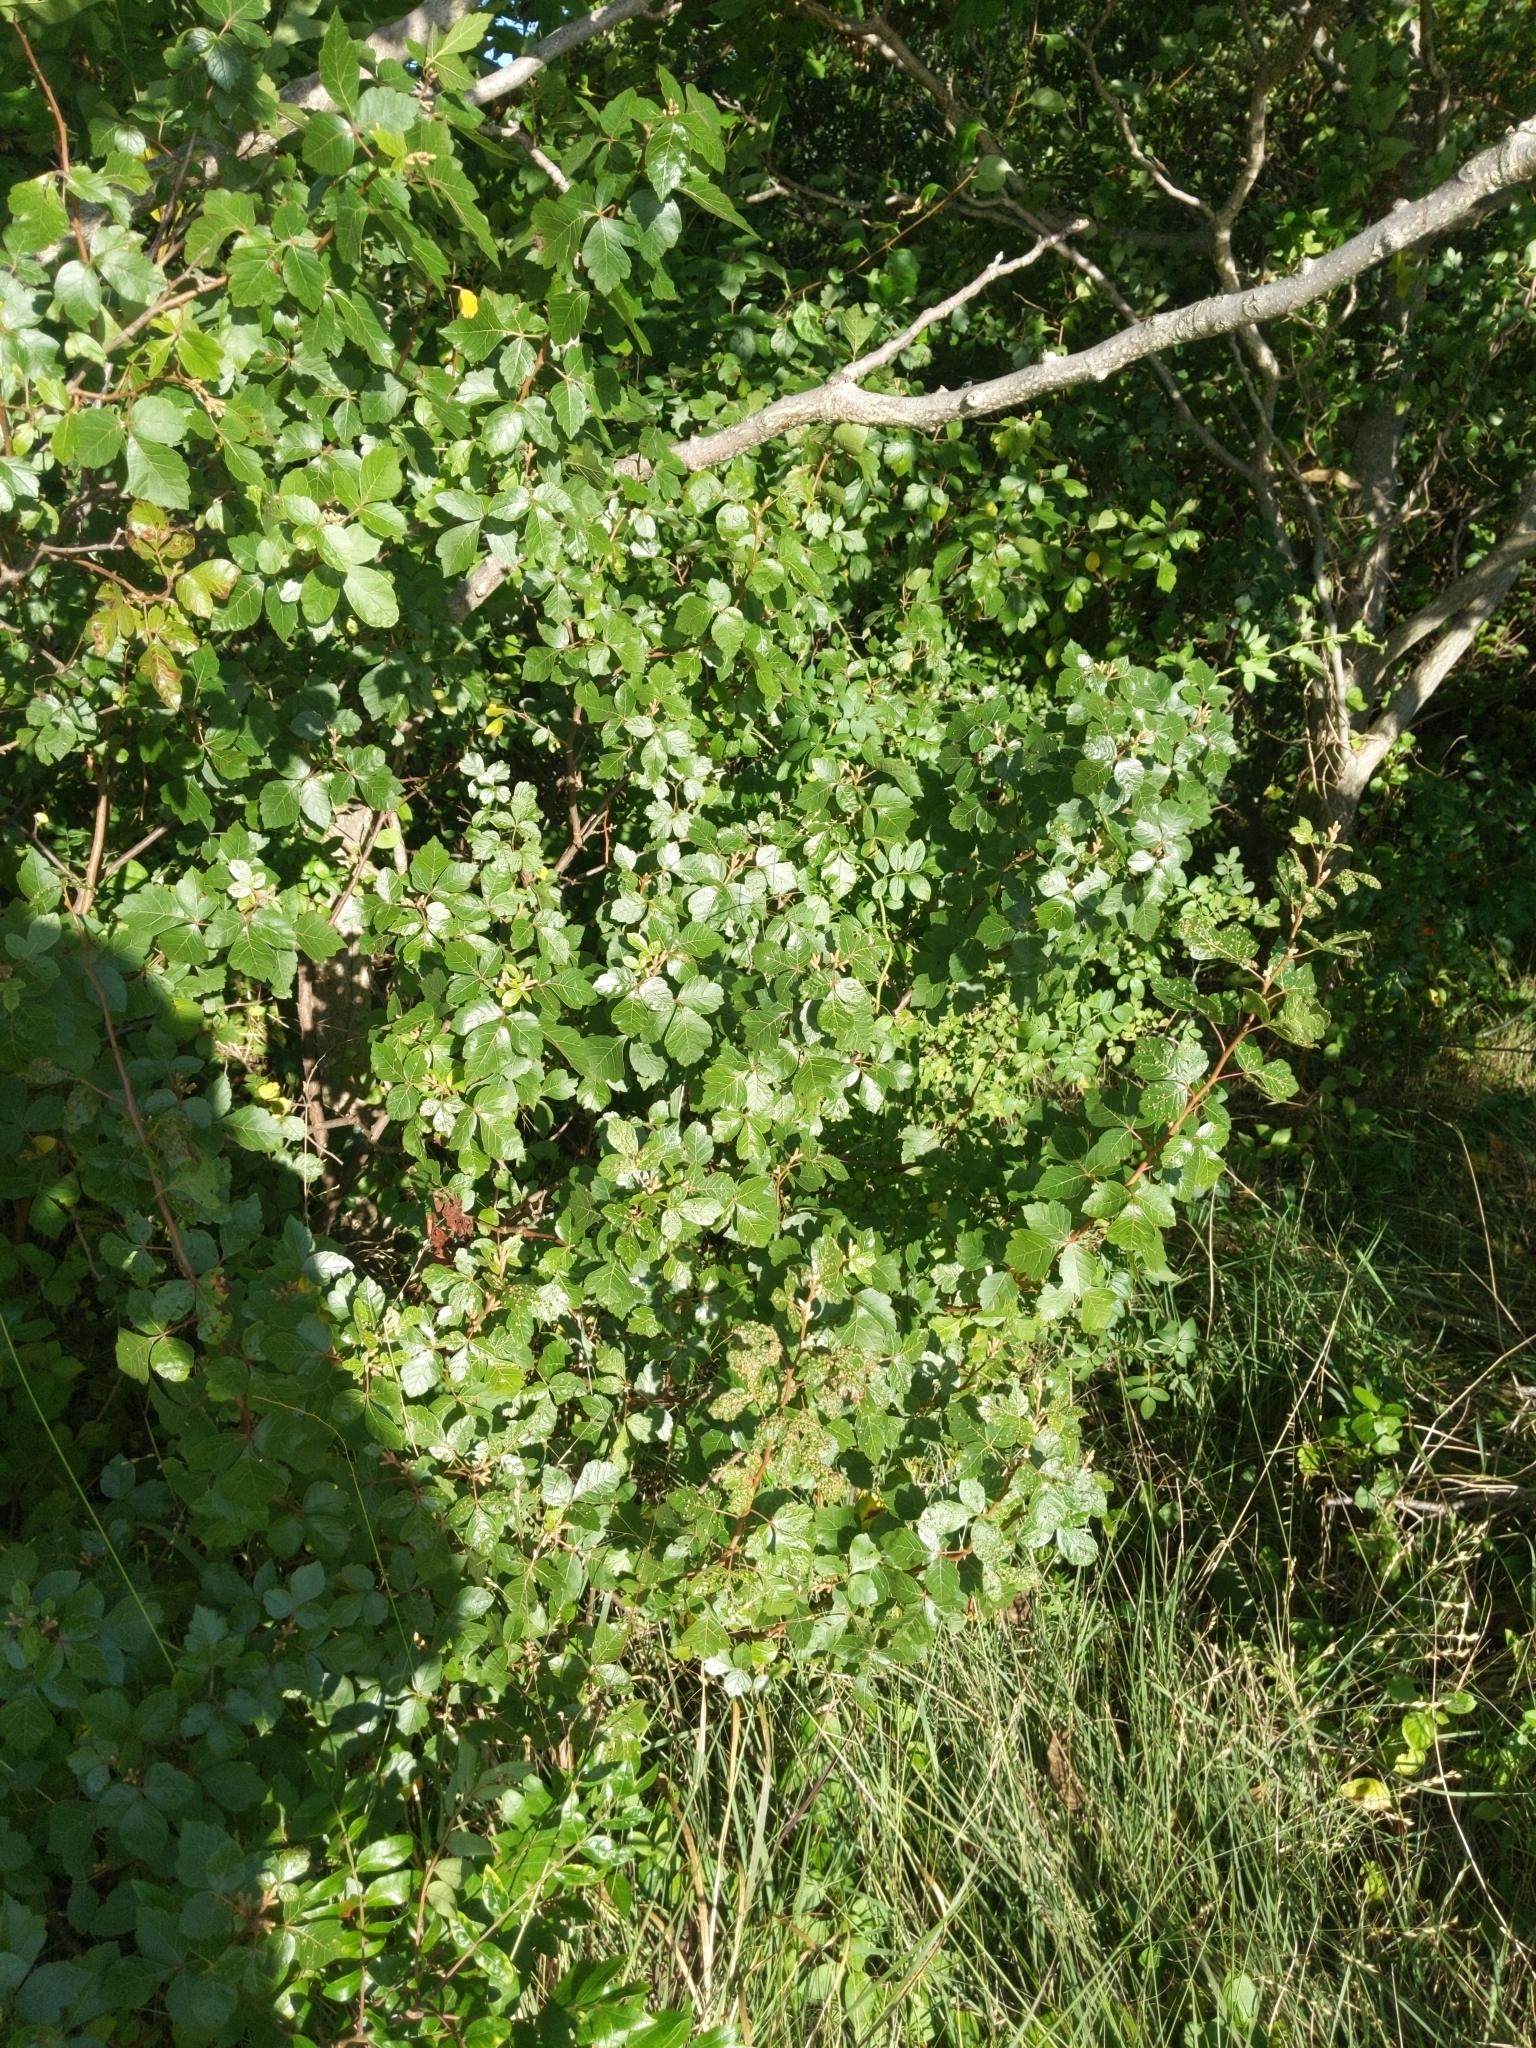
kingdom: Plantae
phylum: Tracheophyta
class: Magnoliopsida
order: Sapindales
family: Anacardiaceae
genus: Rhus
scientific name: Rhus aromatica
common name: Aromatic sumac
